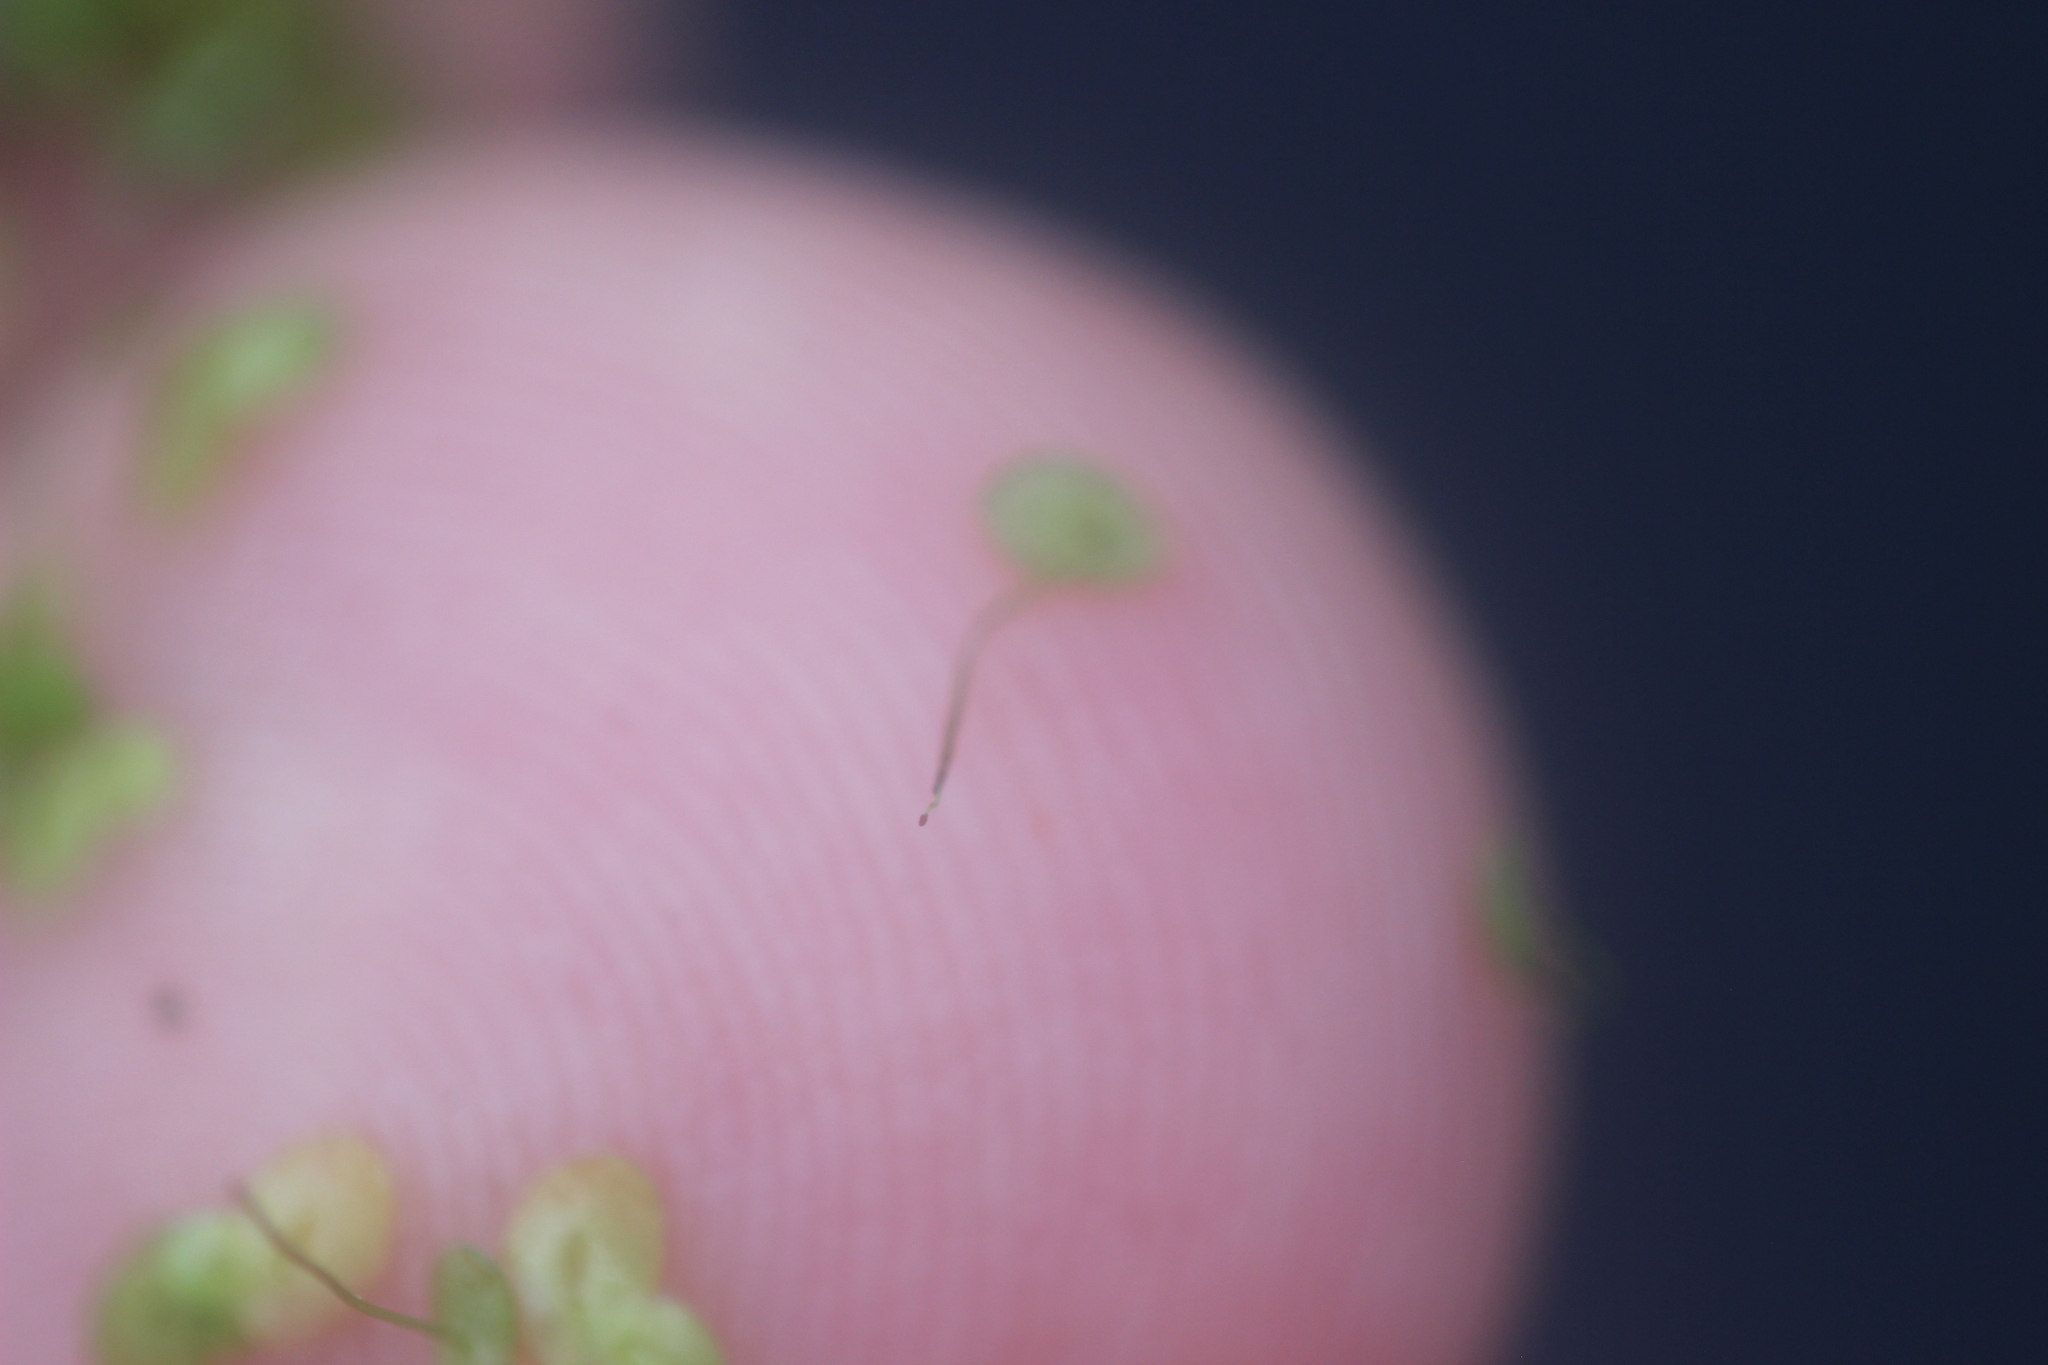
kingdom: Plantae
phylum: Tracheophyta
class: Liliopsida
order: Alismatales
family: Araceae
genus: Lemna
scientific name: Lemna disperma
